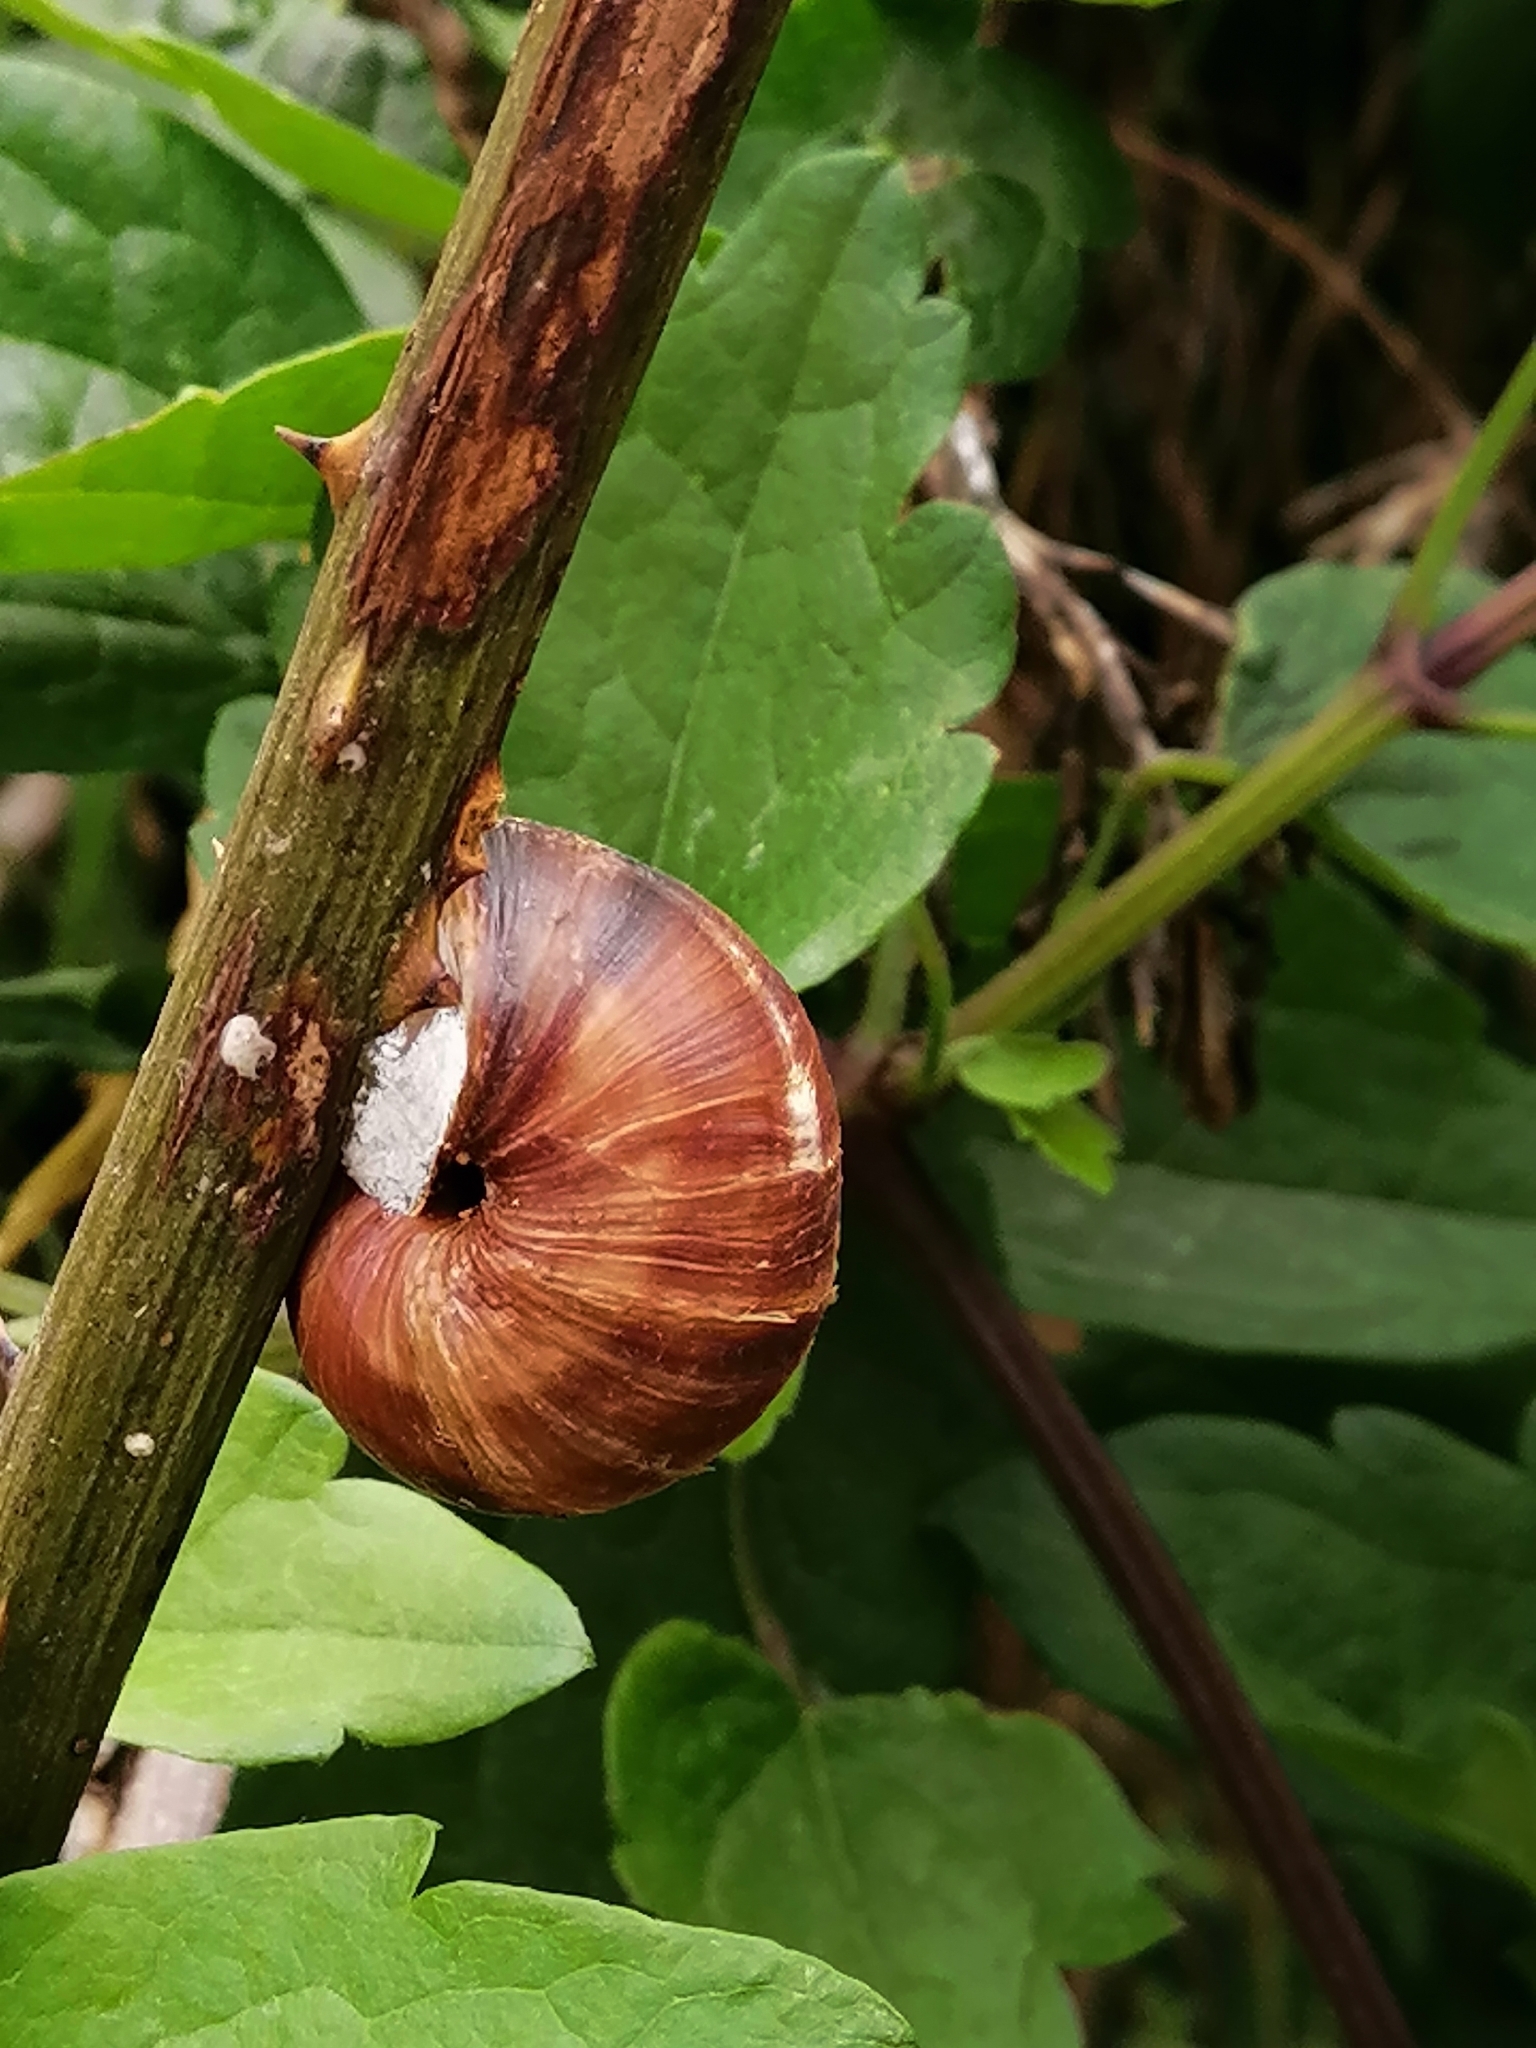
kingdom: Animalia
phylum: Mollusca
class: Gastropoda
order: Stylommatophora
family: Helicidae
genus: Helix
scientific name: Helix lucorum
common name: Turkish snail
